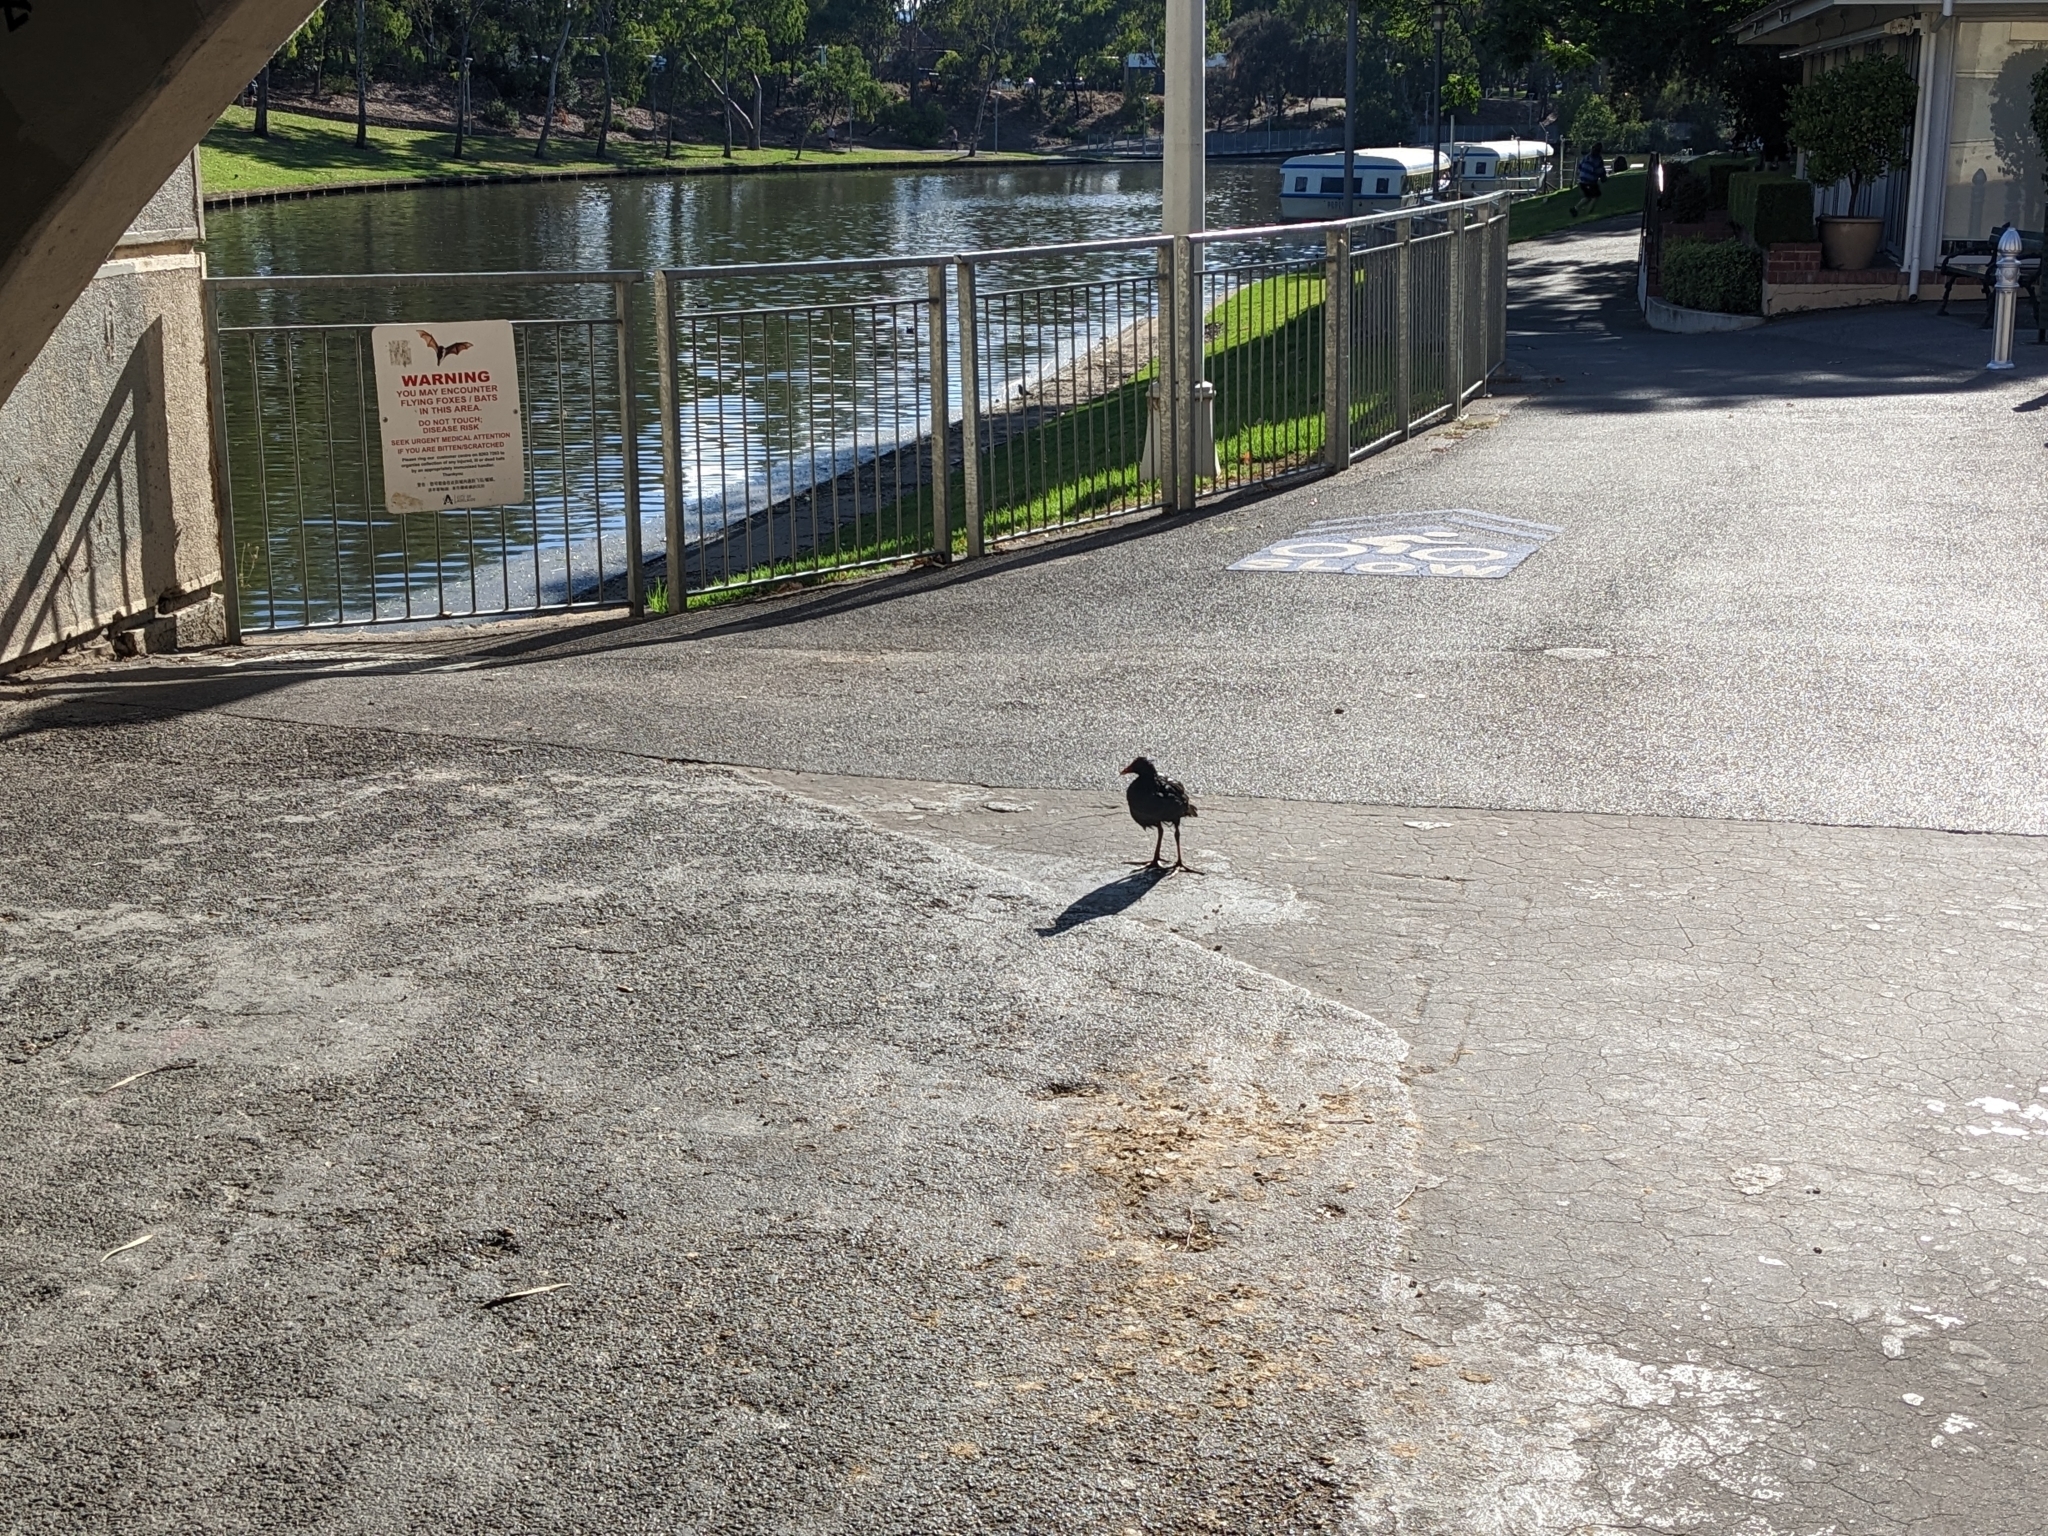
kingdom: Animalia
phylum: Chordata
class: Aves
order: Gruiformes
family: Rallidae
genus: Gallinula
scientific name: Gallinula tenebrosa
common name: Dusky moorhen
